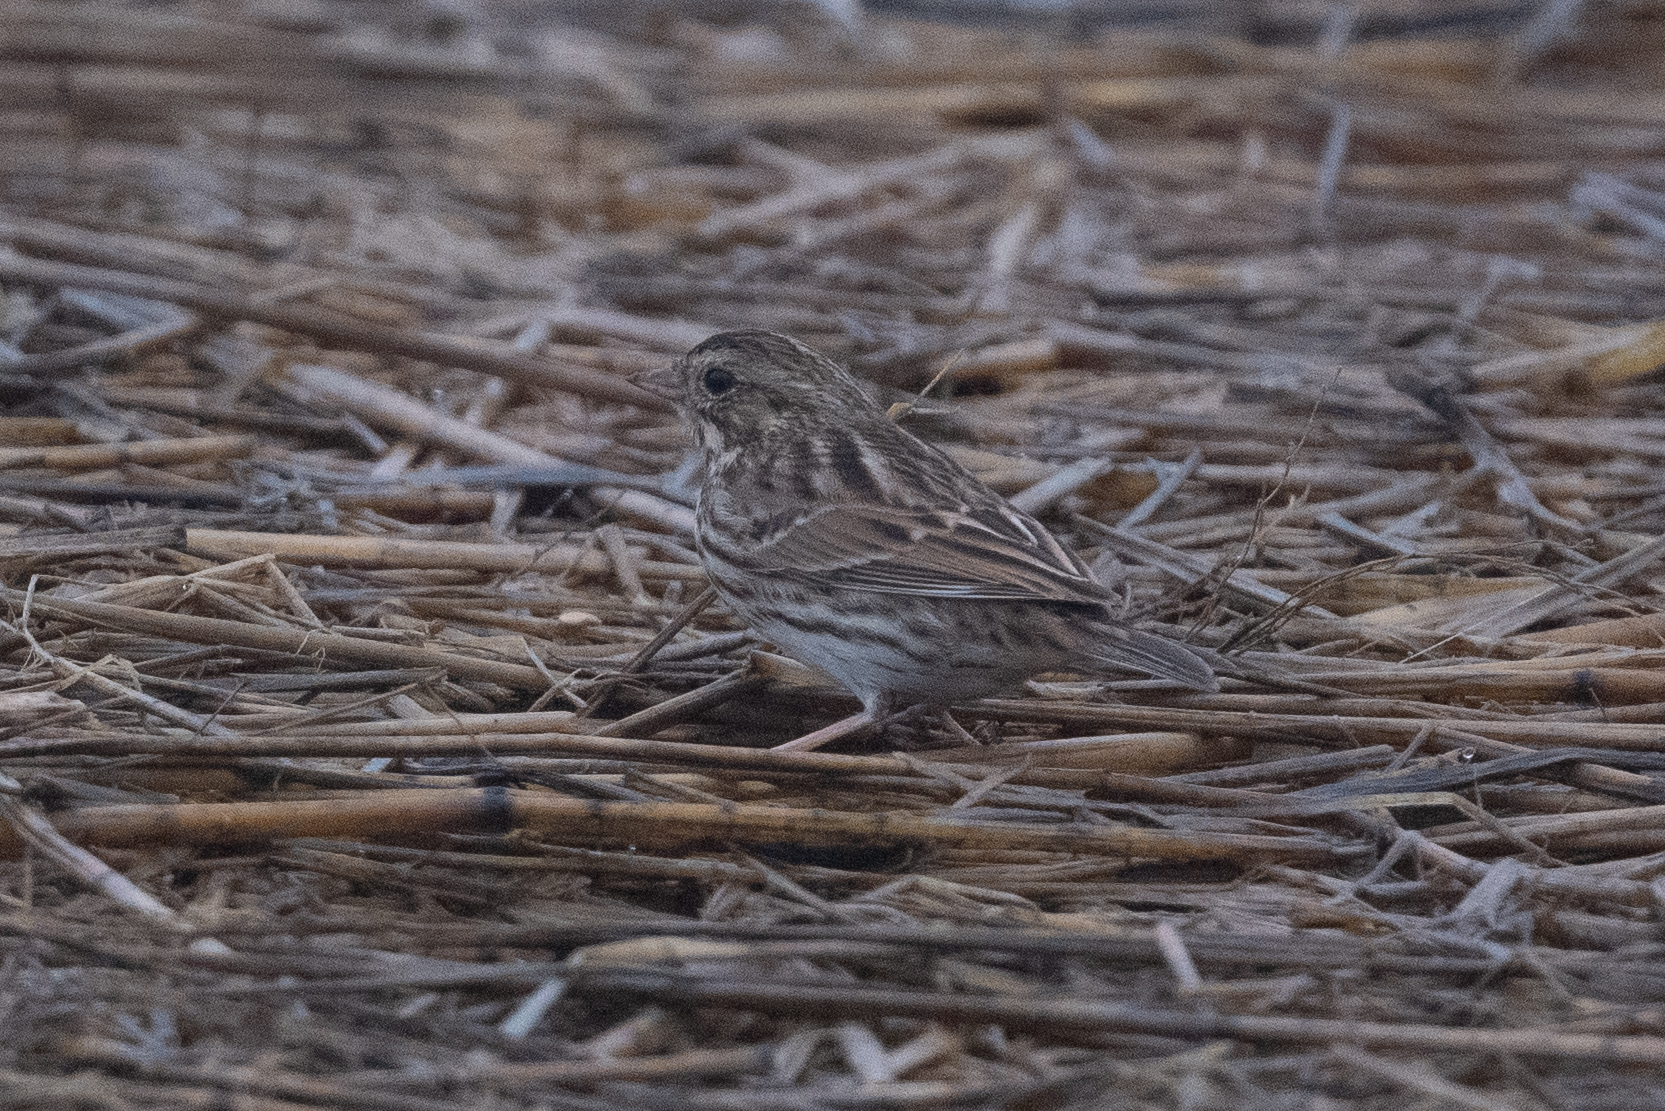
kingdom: Animalia
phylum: Chordata
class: Aves
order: Passeriformes
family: Passerellidae
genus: Passerculus
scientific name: Passerculus sandwichensis
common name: Savannah sparrow
